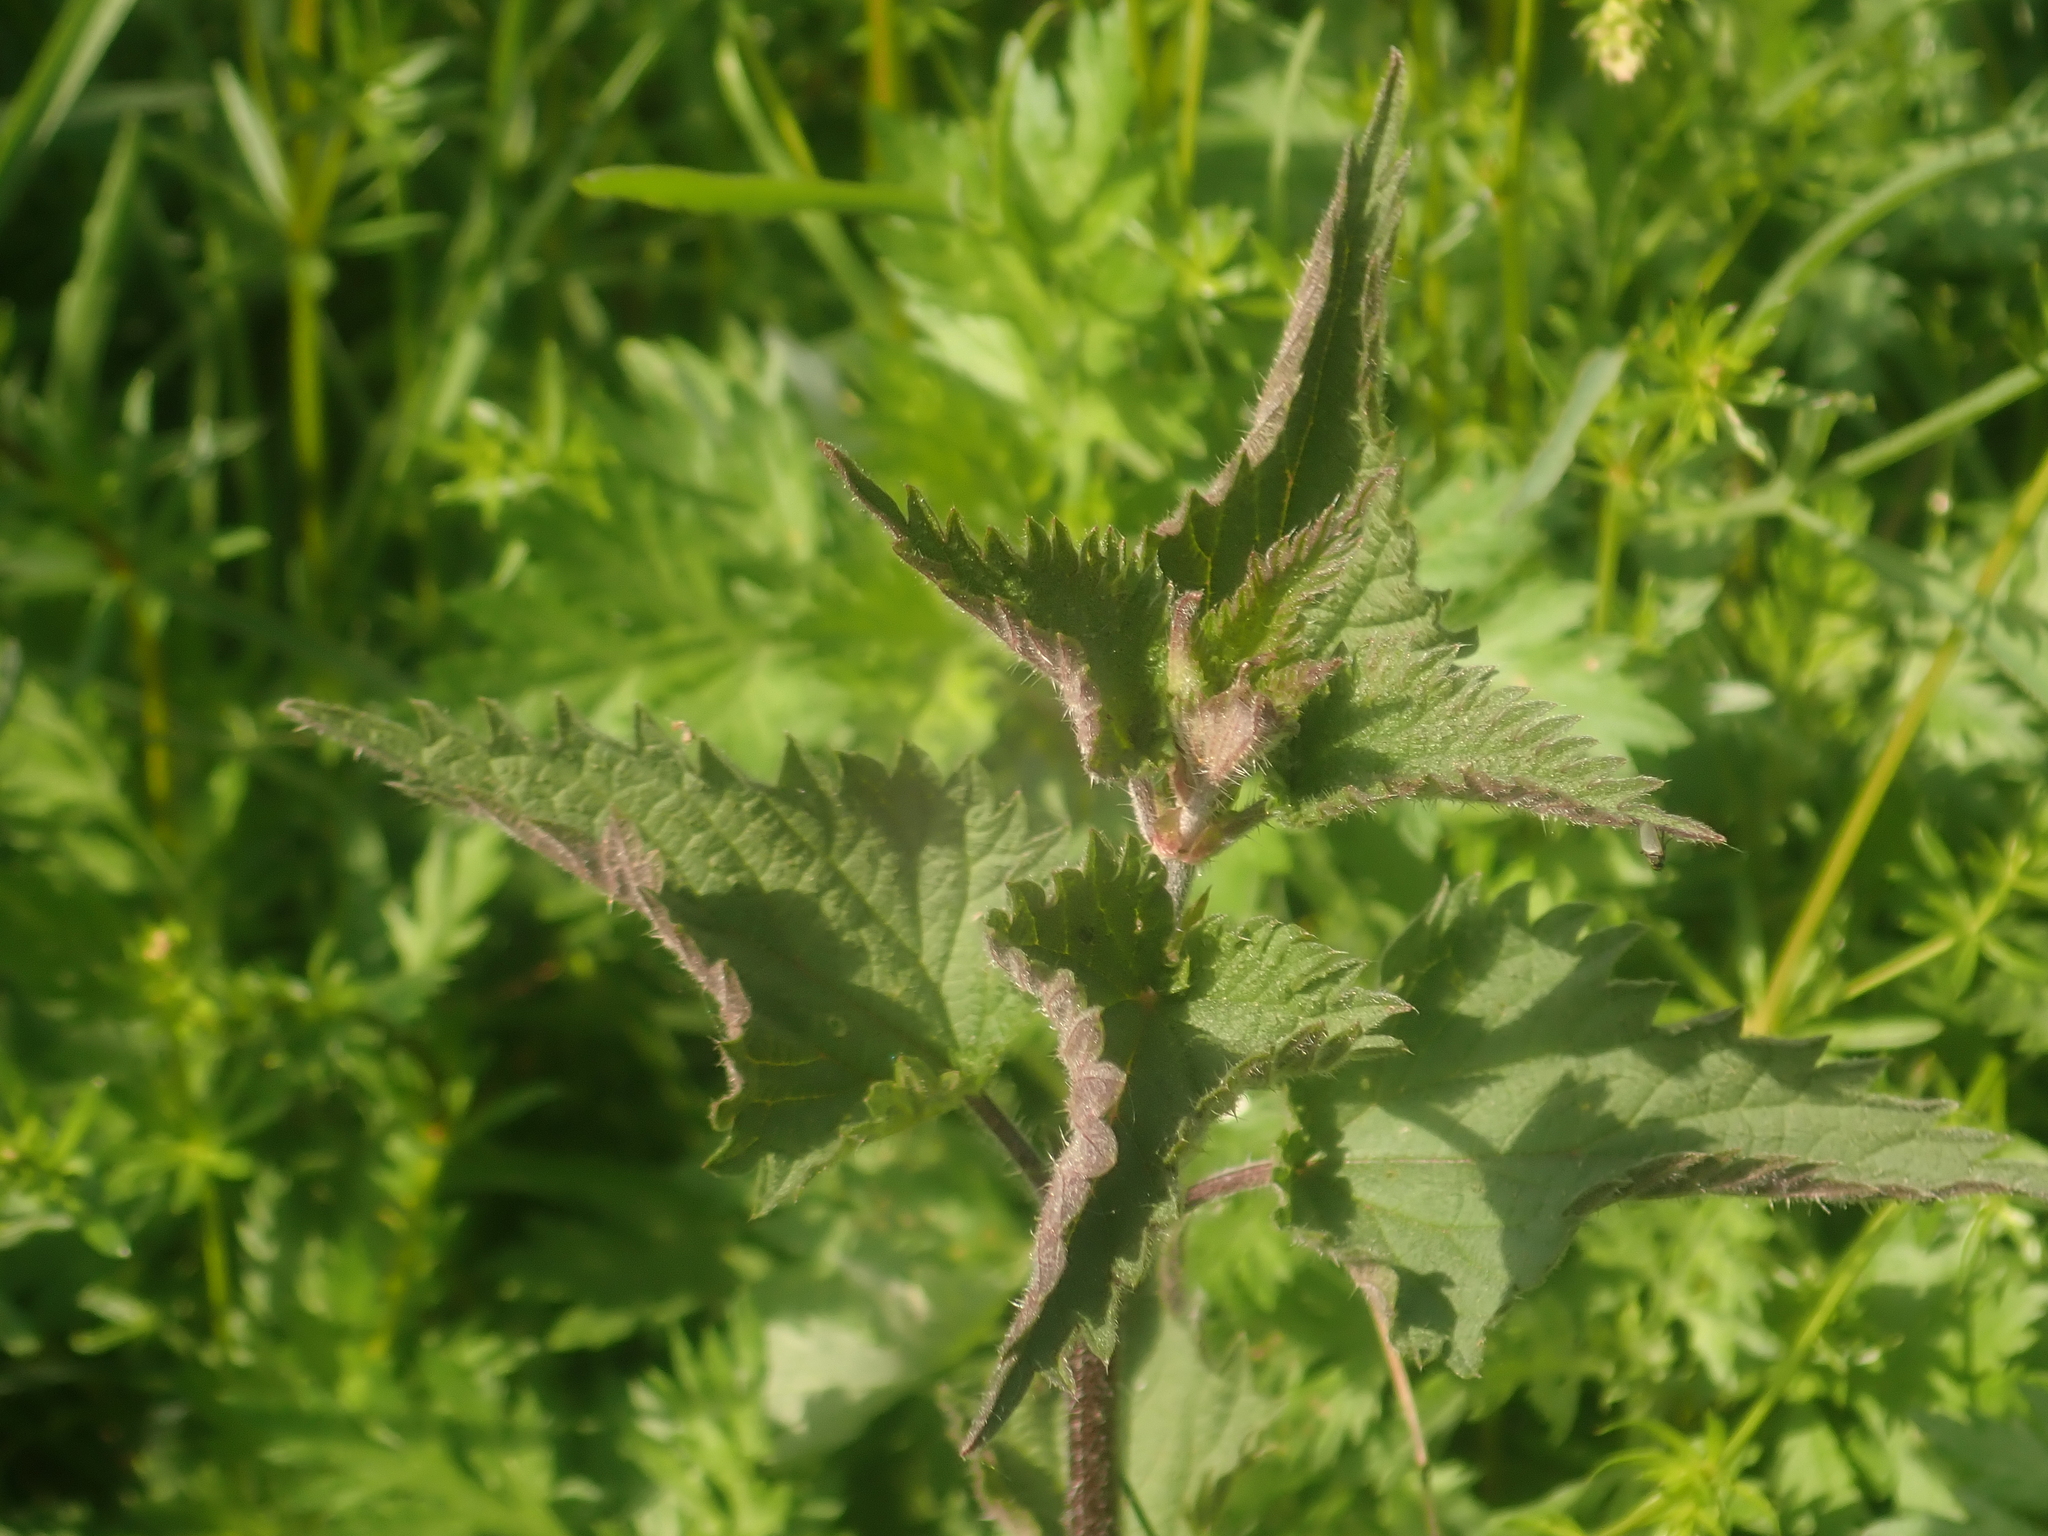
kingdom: Plantae
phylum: Tracheophyta
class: Magnoliopsida
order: Rosales
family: Urticaceae
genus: Urtica
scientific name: Urtica dioica
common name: Common nettle
